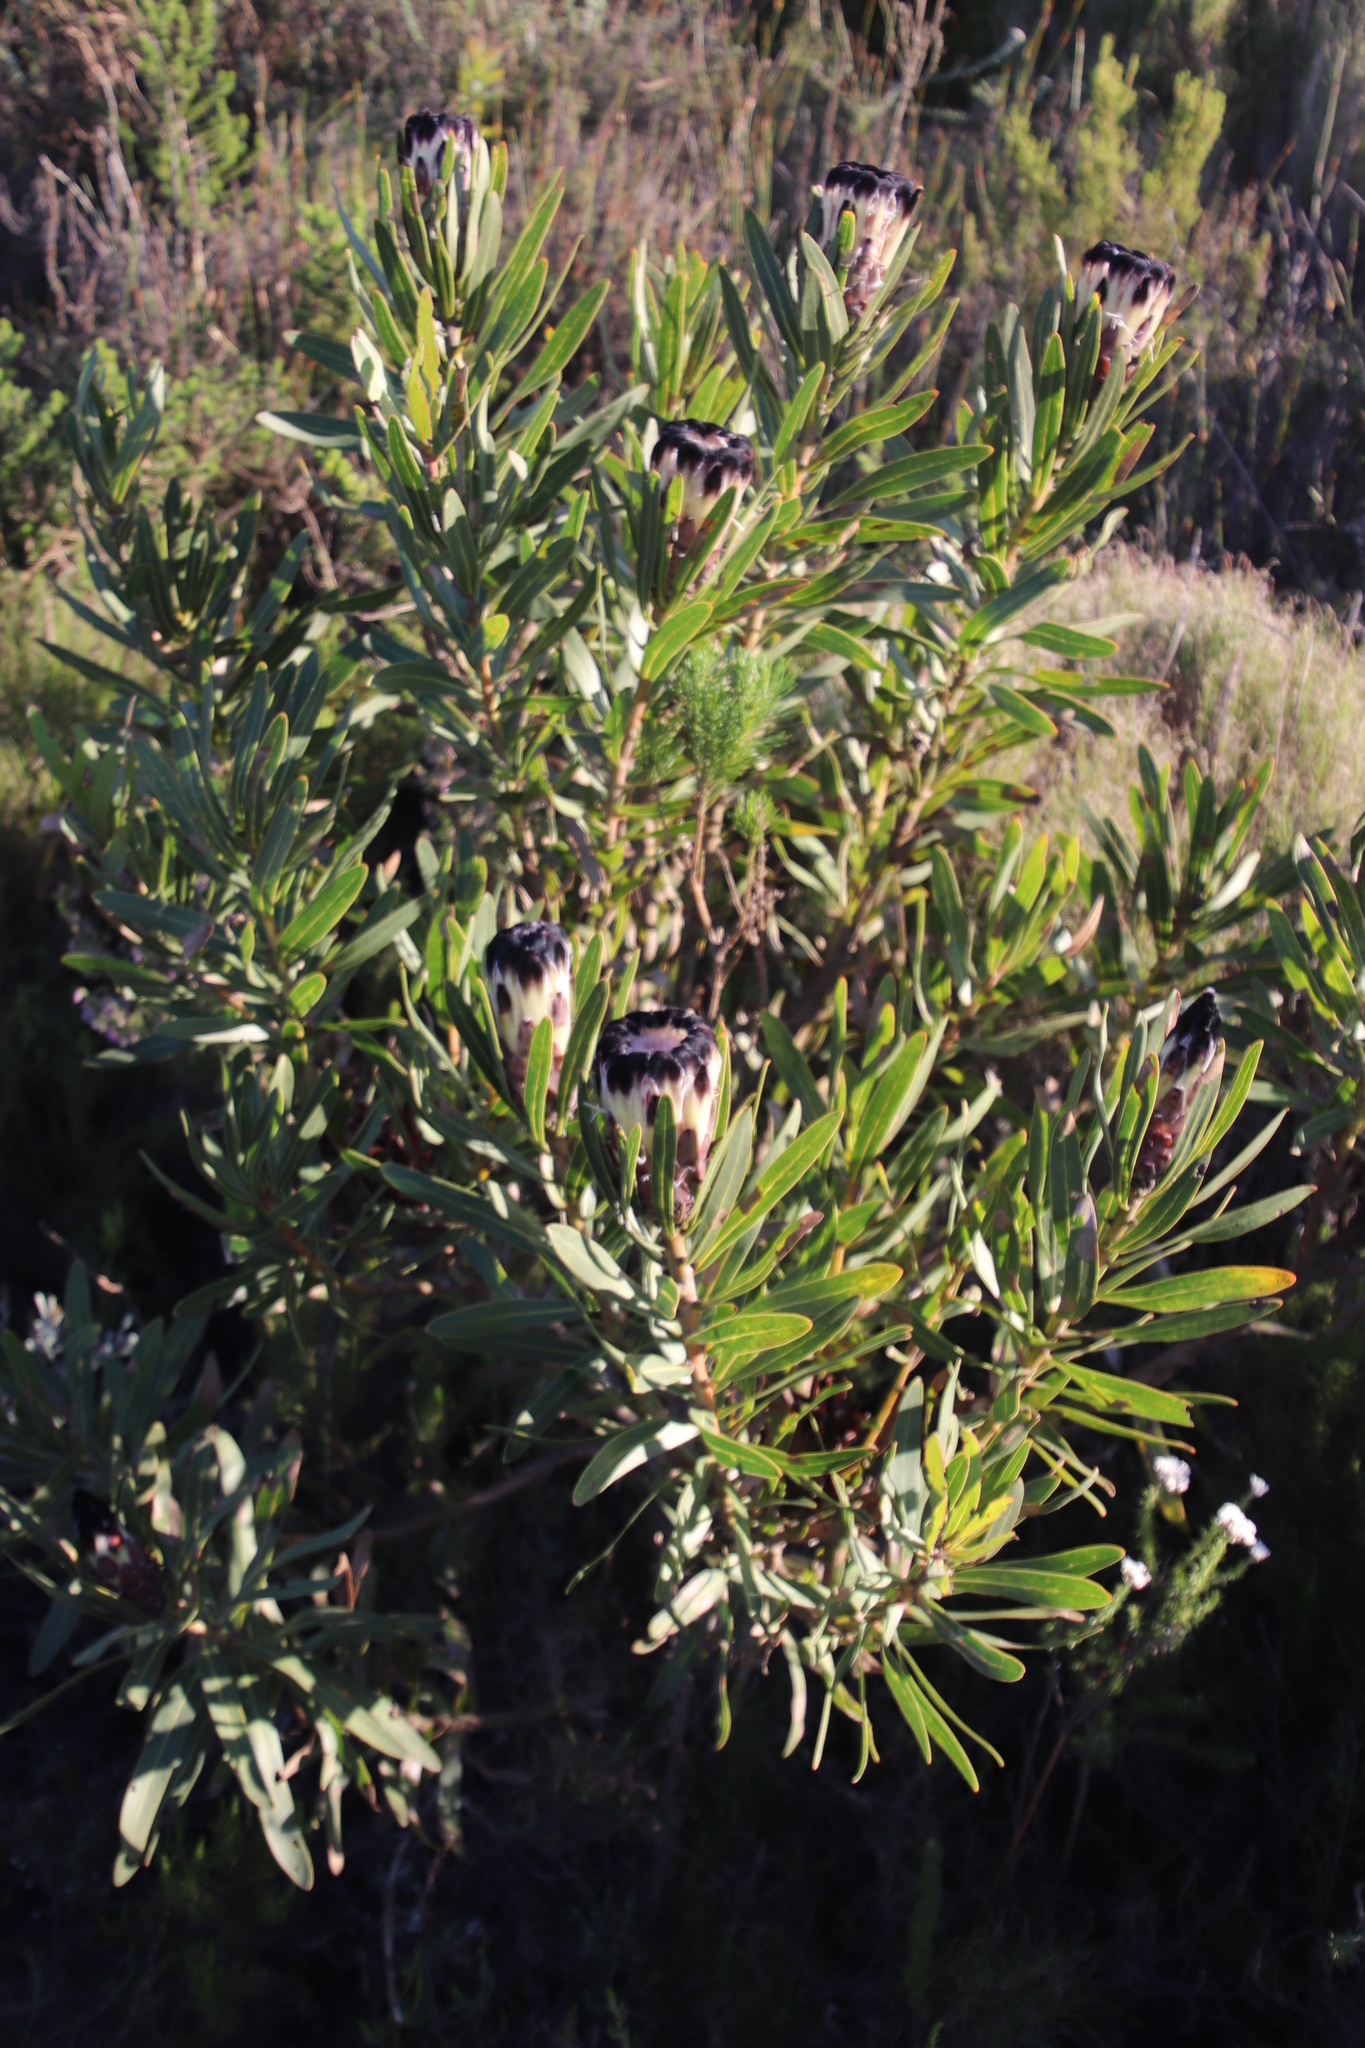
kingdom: Plantae
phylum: Tracheophyta
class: Magnoliopsida
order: Proteales
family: Proteaceae
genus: Protea
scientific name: Protea lepidocarpodendron
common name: Black-bearded protea
